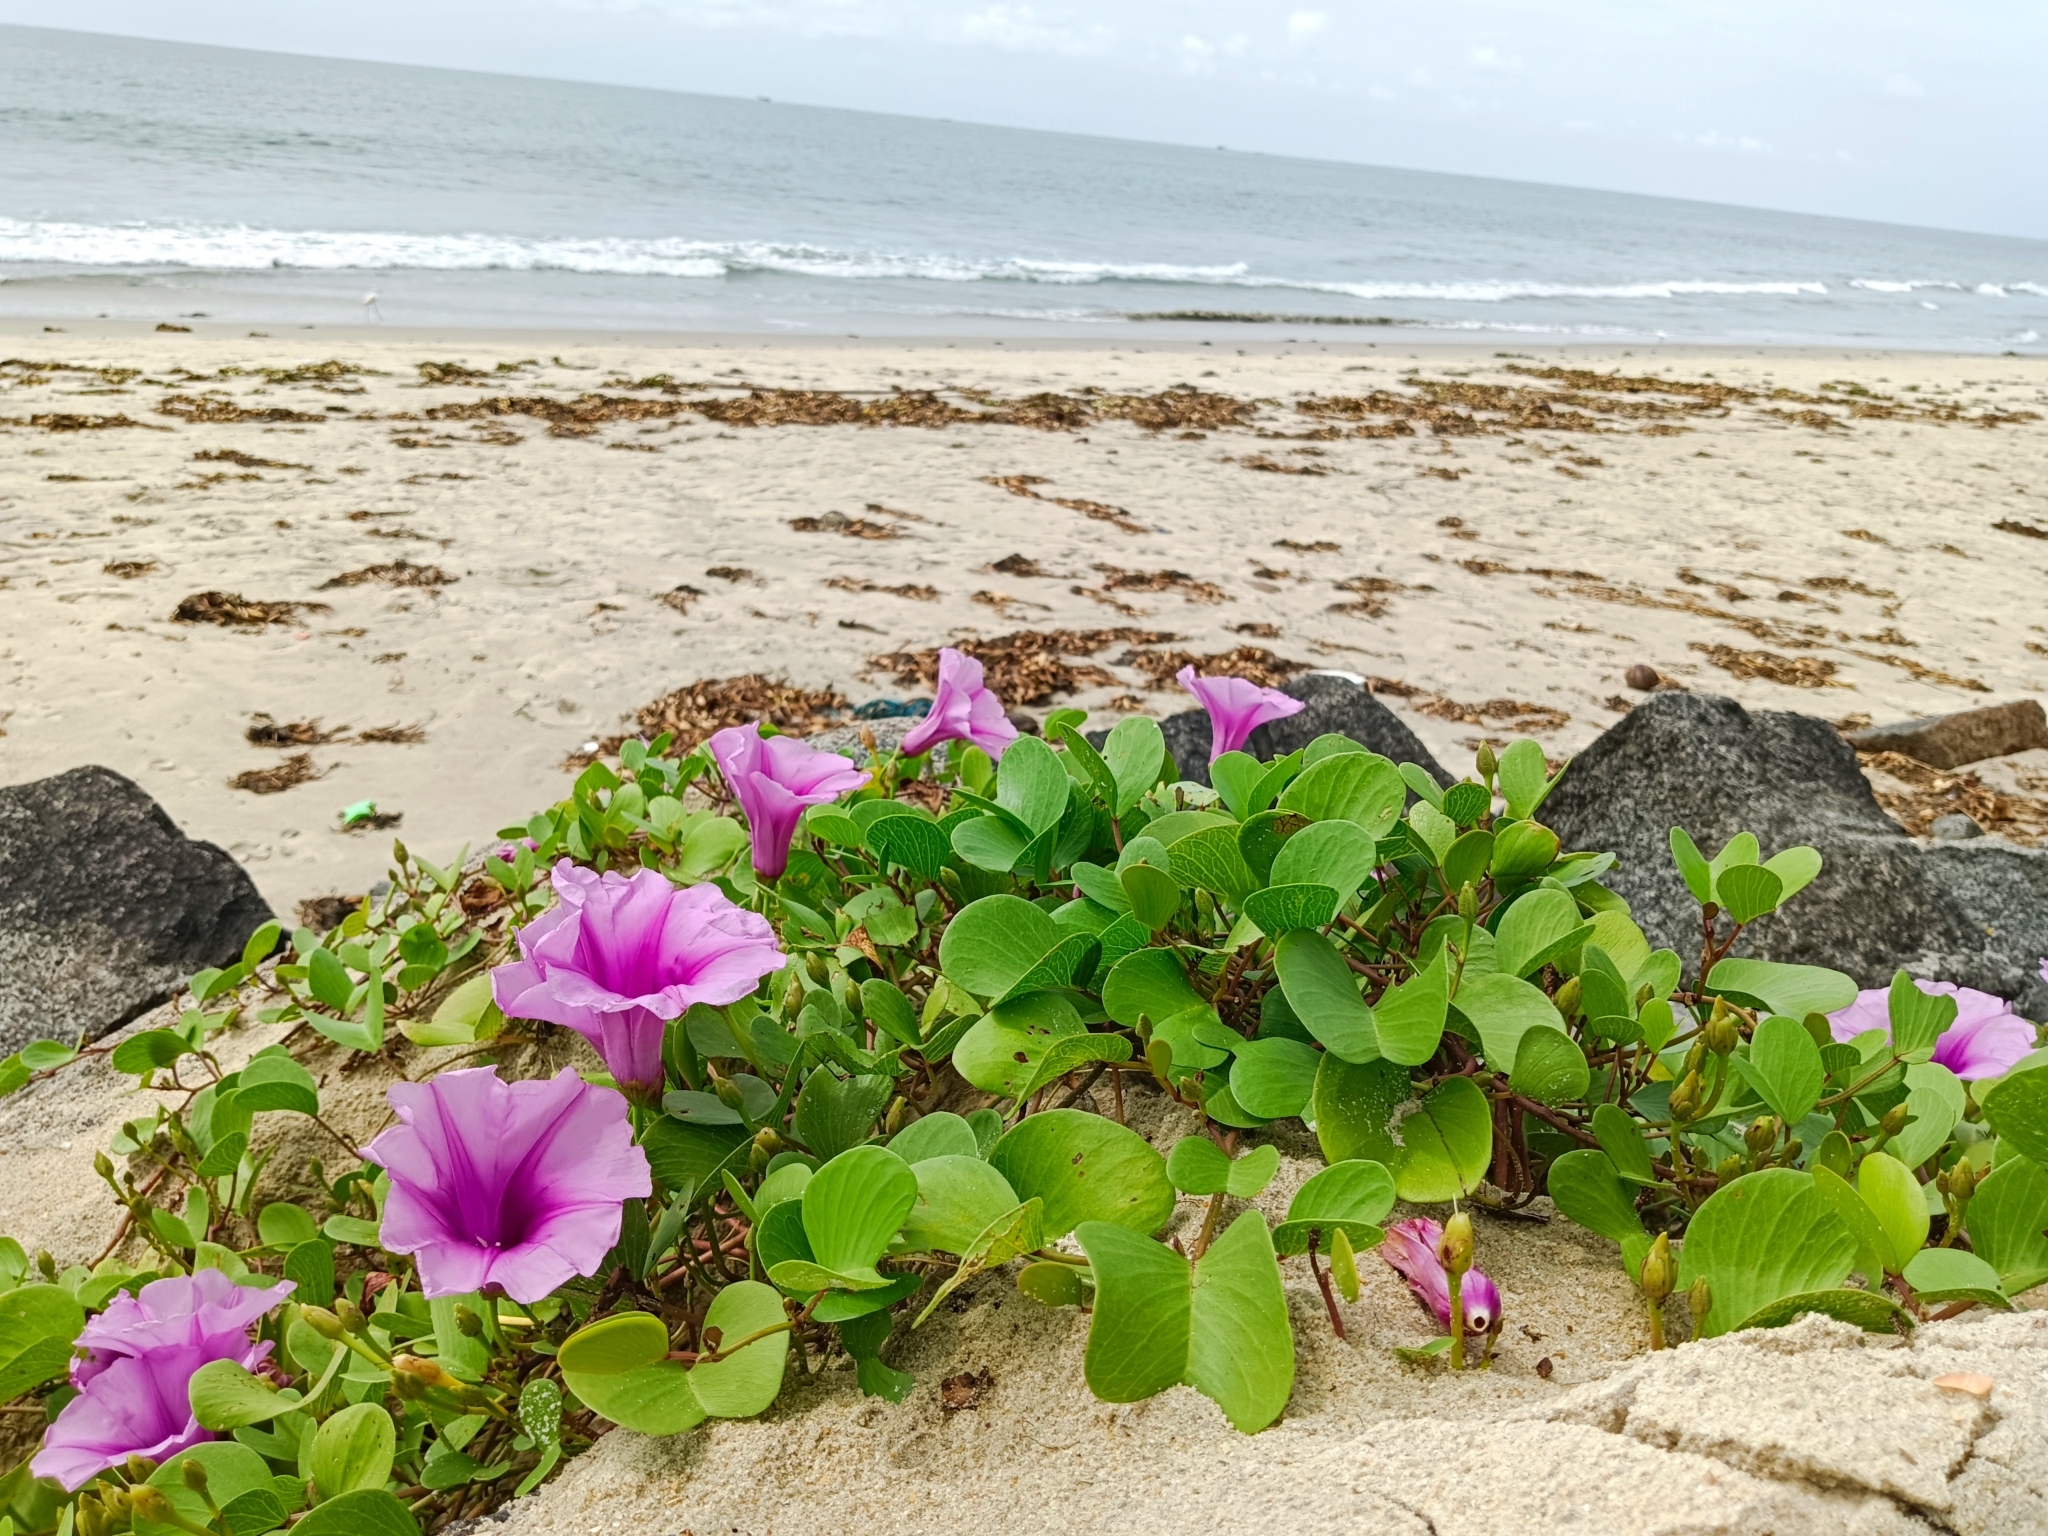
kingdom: Plantae
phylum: Tracheophyta
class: Magnoliopsida
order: Solanales
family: Convolvulaceae
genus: Ipomoea
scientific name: Ipomoea pes-caprae
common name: Beach morning glory
